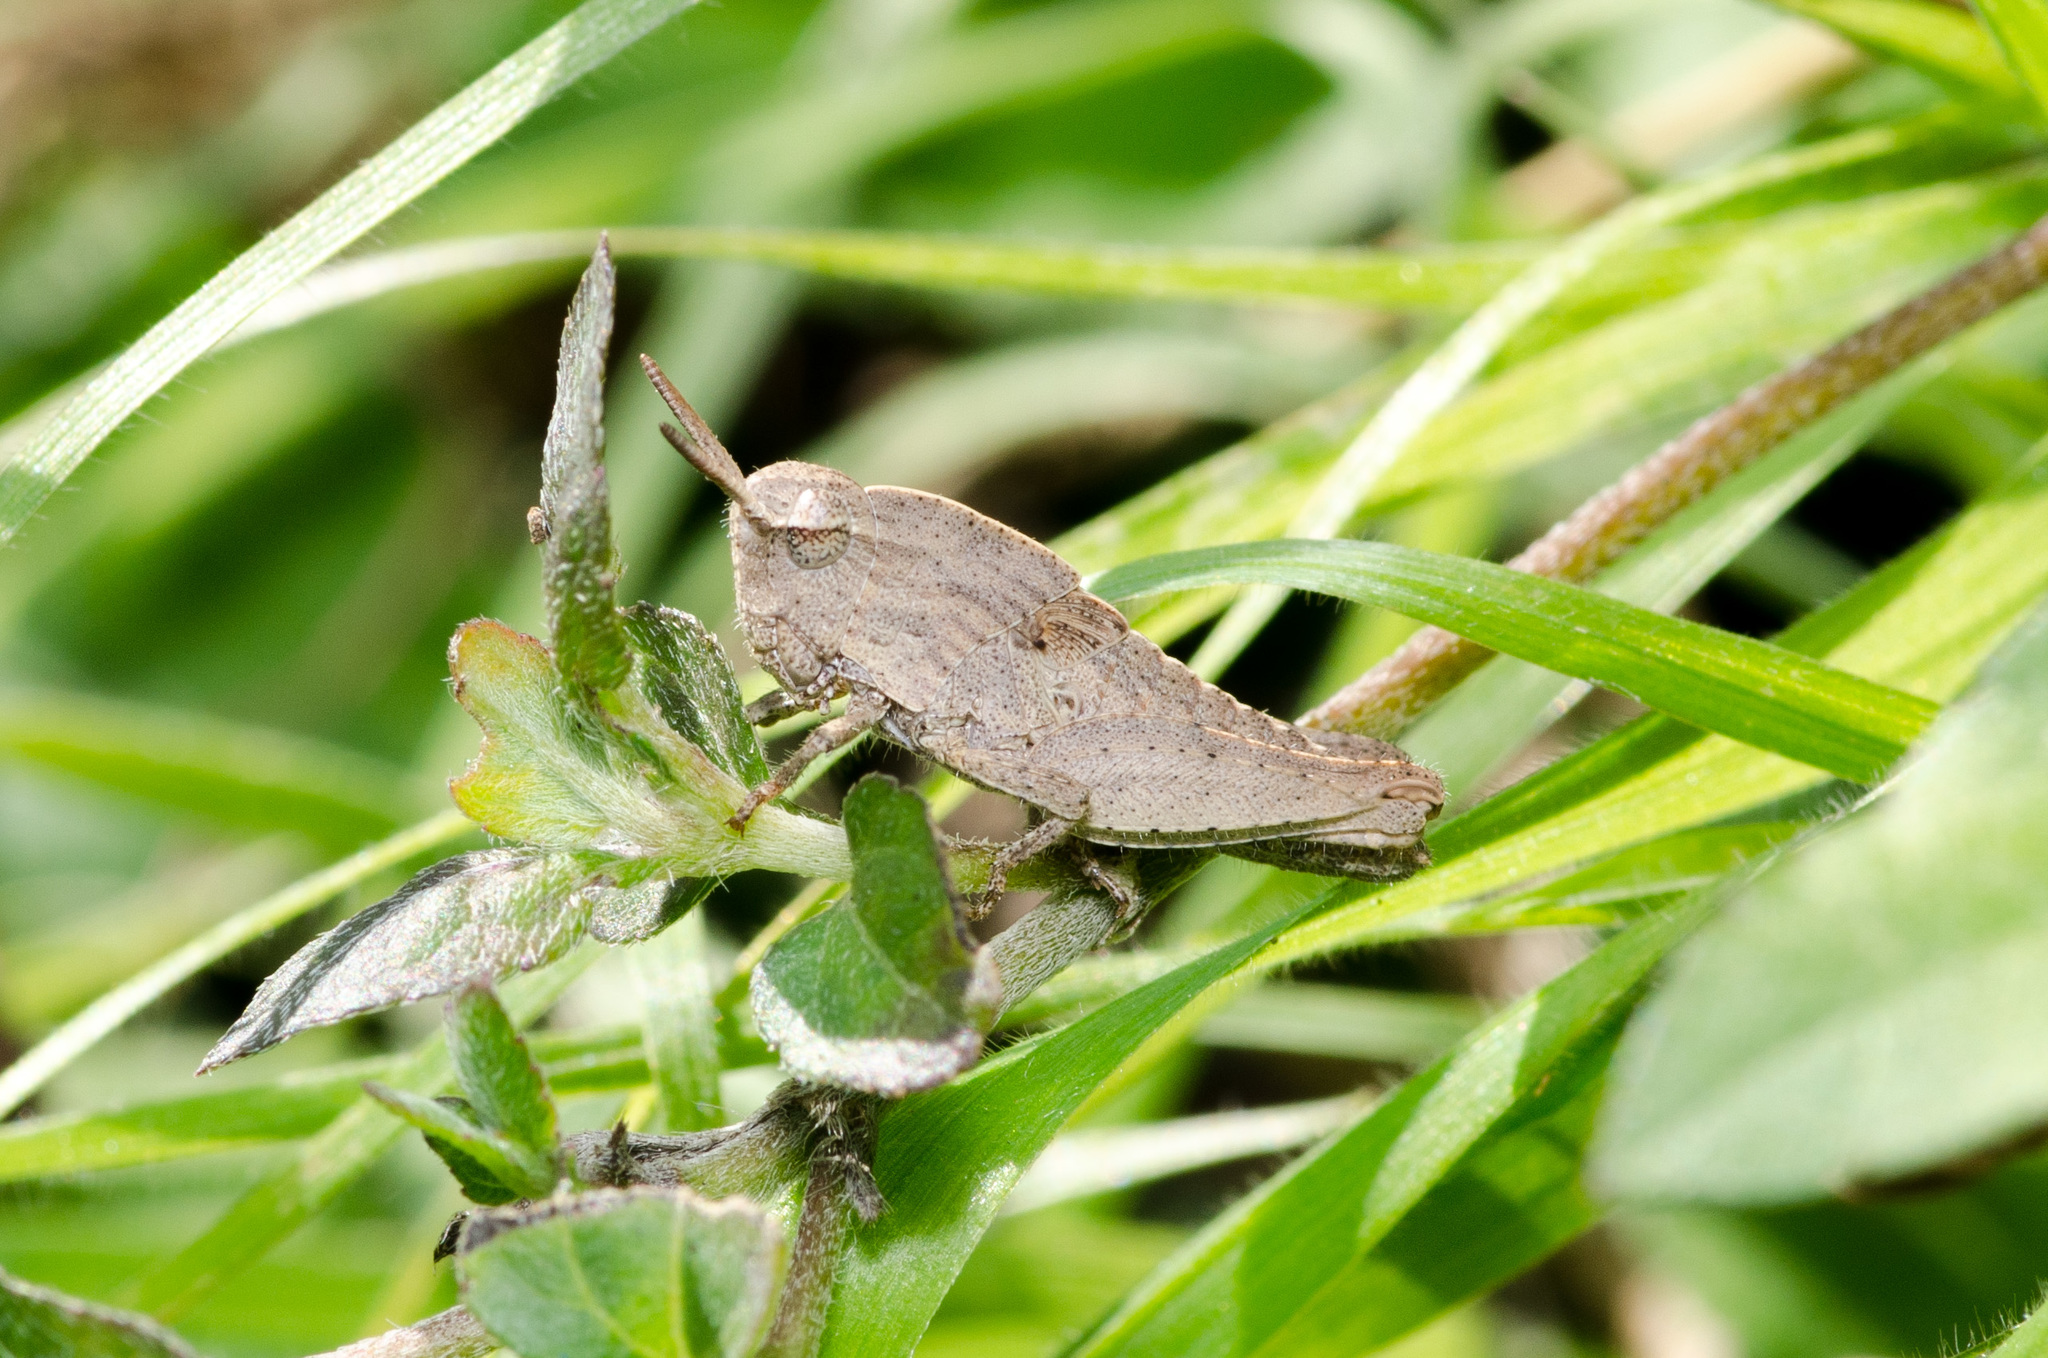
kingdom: Animalia
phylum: Arthropoda
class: Insecta
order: Orthoptera
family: Acrididae
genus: Chortophaga
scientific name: Chortophaga viridifasciata
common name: Green-striped grasshopper
